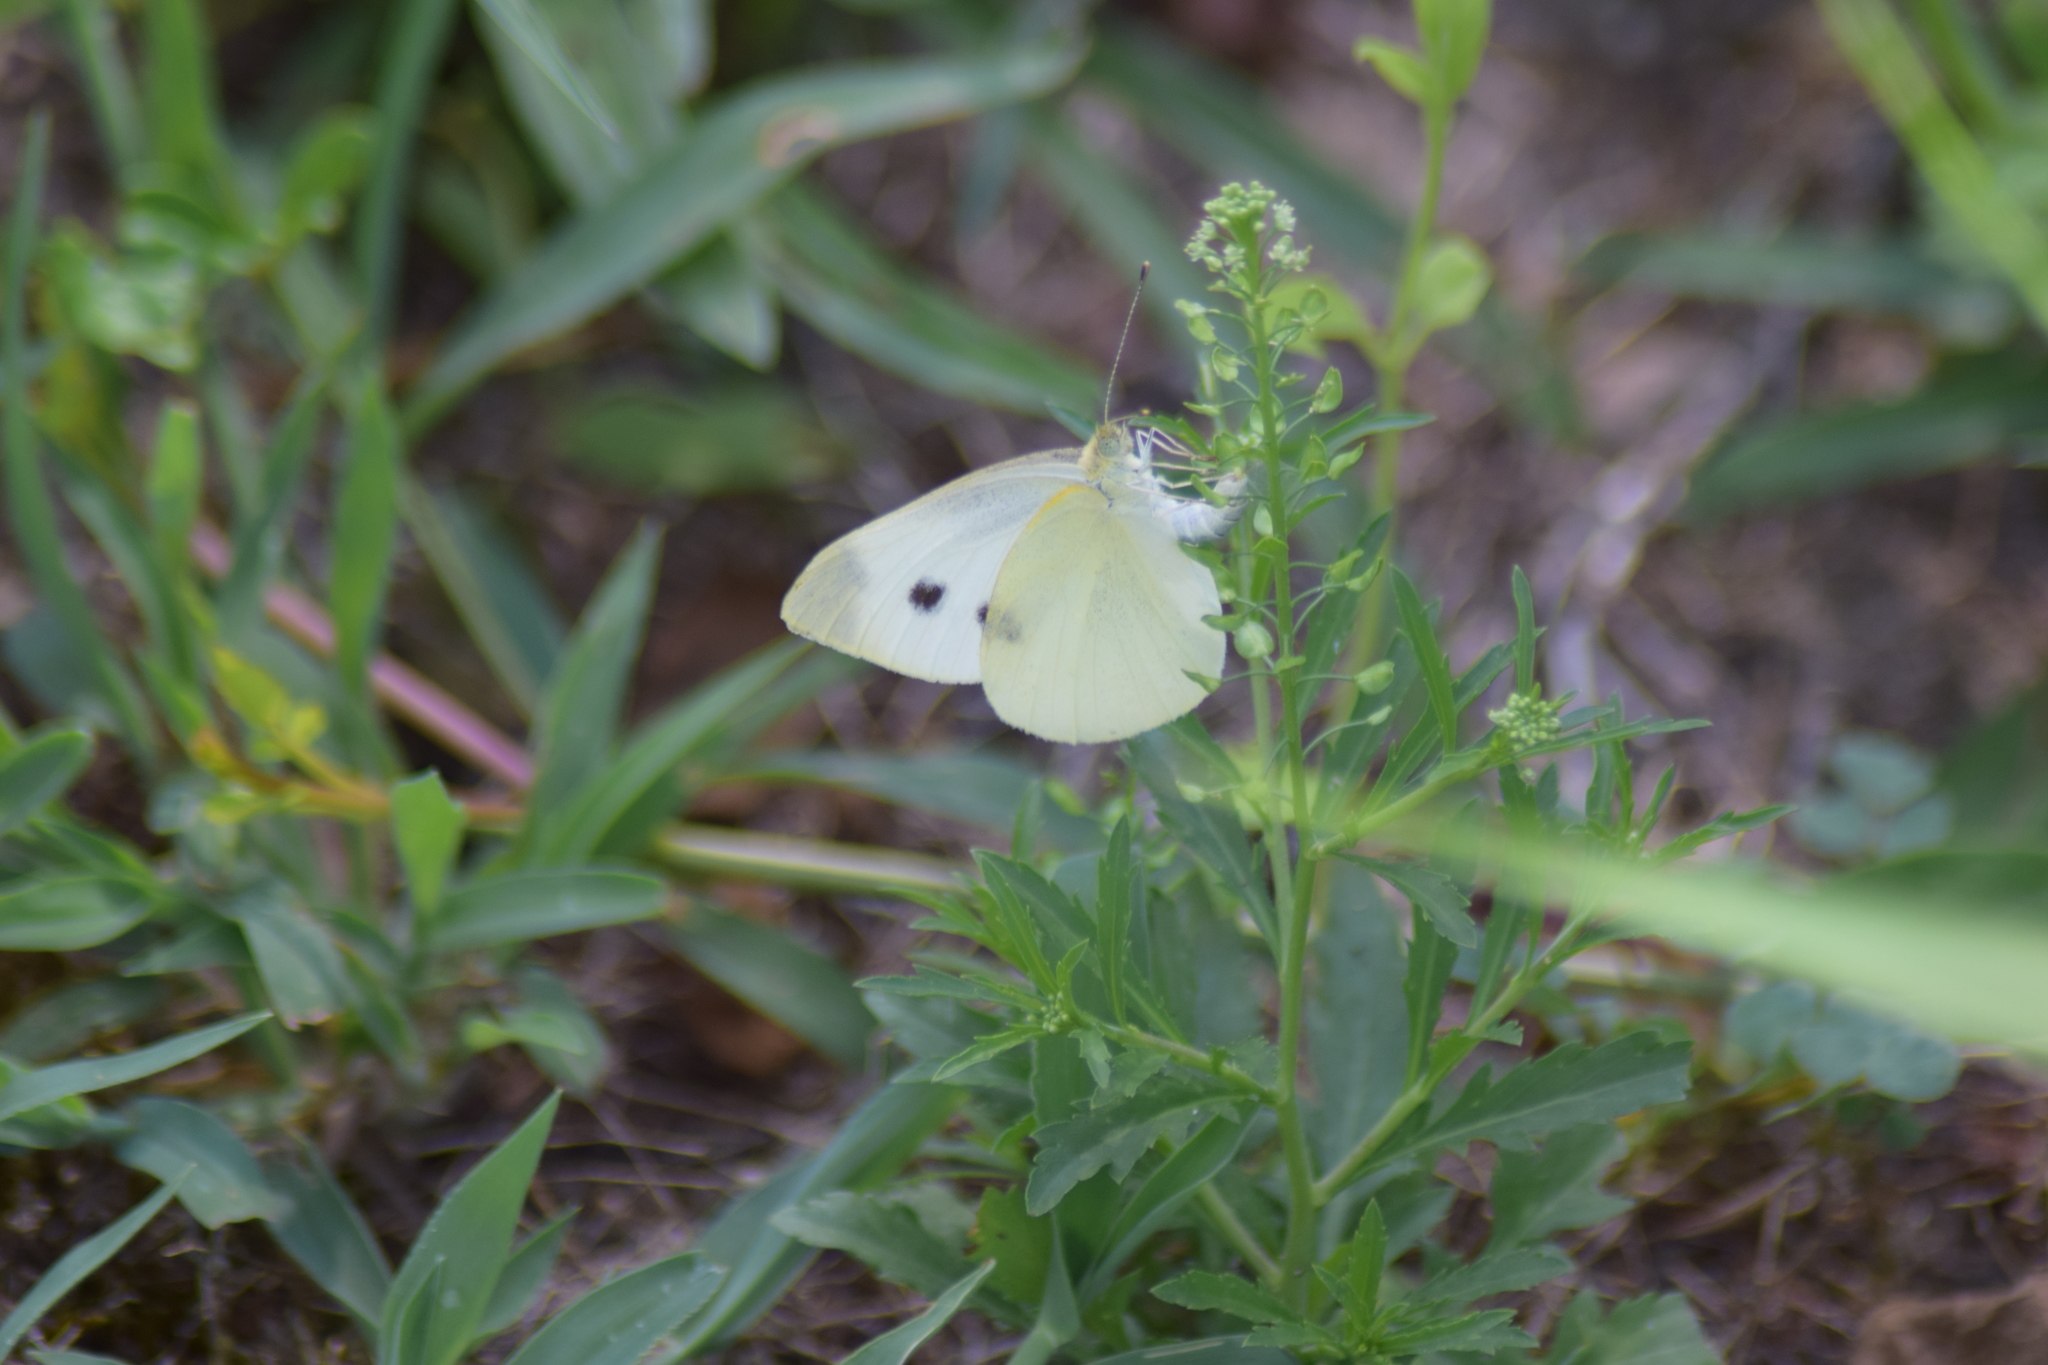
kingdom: Animalia
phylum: Arthropoda
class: Insecta
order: Lepidoptera
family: Pieridae
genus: Pieris
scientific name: Pieris rapae
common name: Small white
